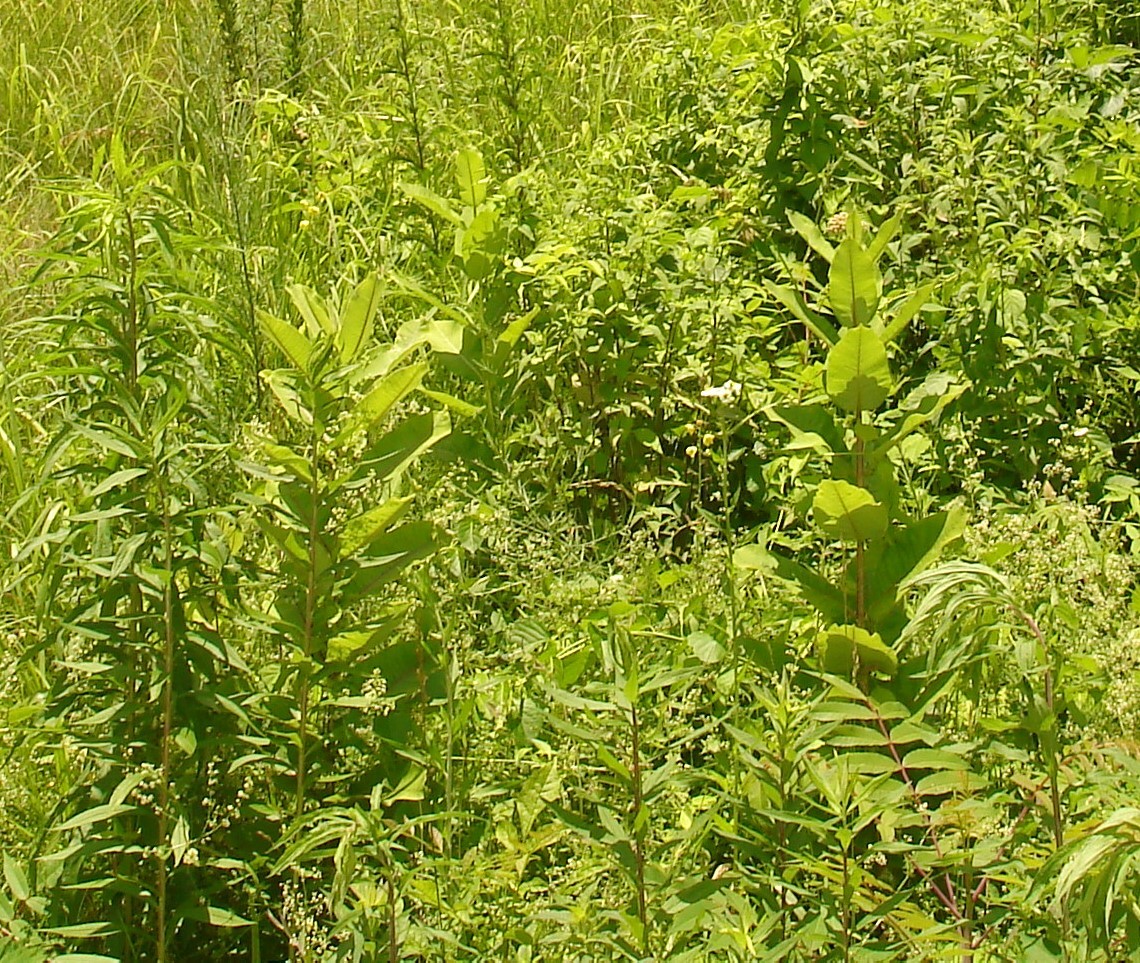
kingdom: Plantae
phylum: Tracheophyta
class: Magnoliopsida
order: Gentianales
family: Apocynaceae
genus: Asclepias
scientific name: Asclepias syriaca
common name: Common milkweed
